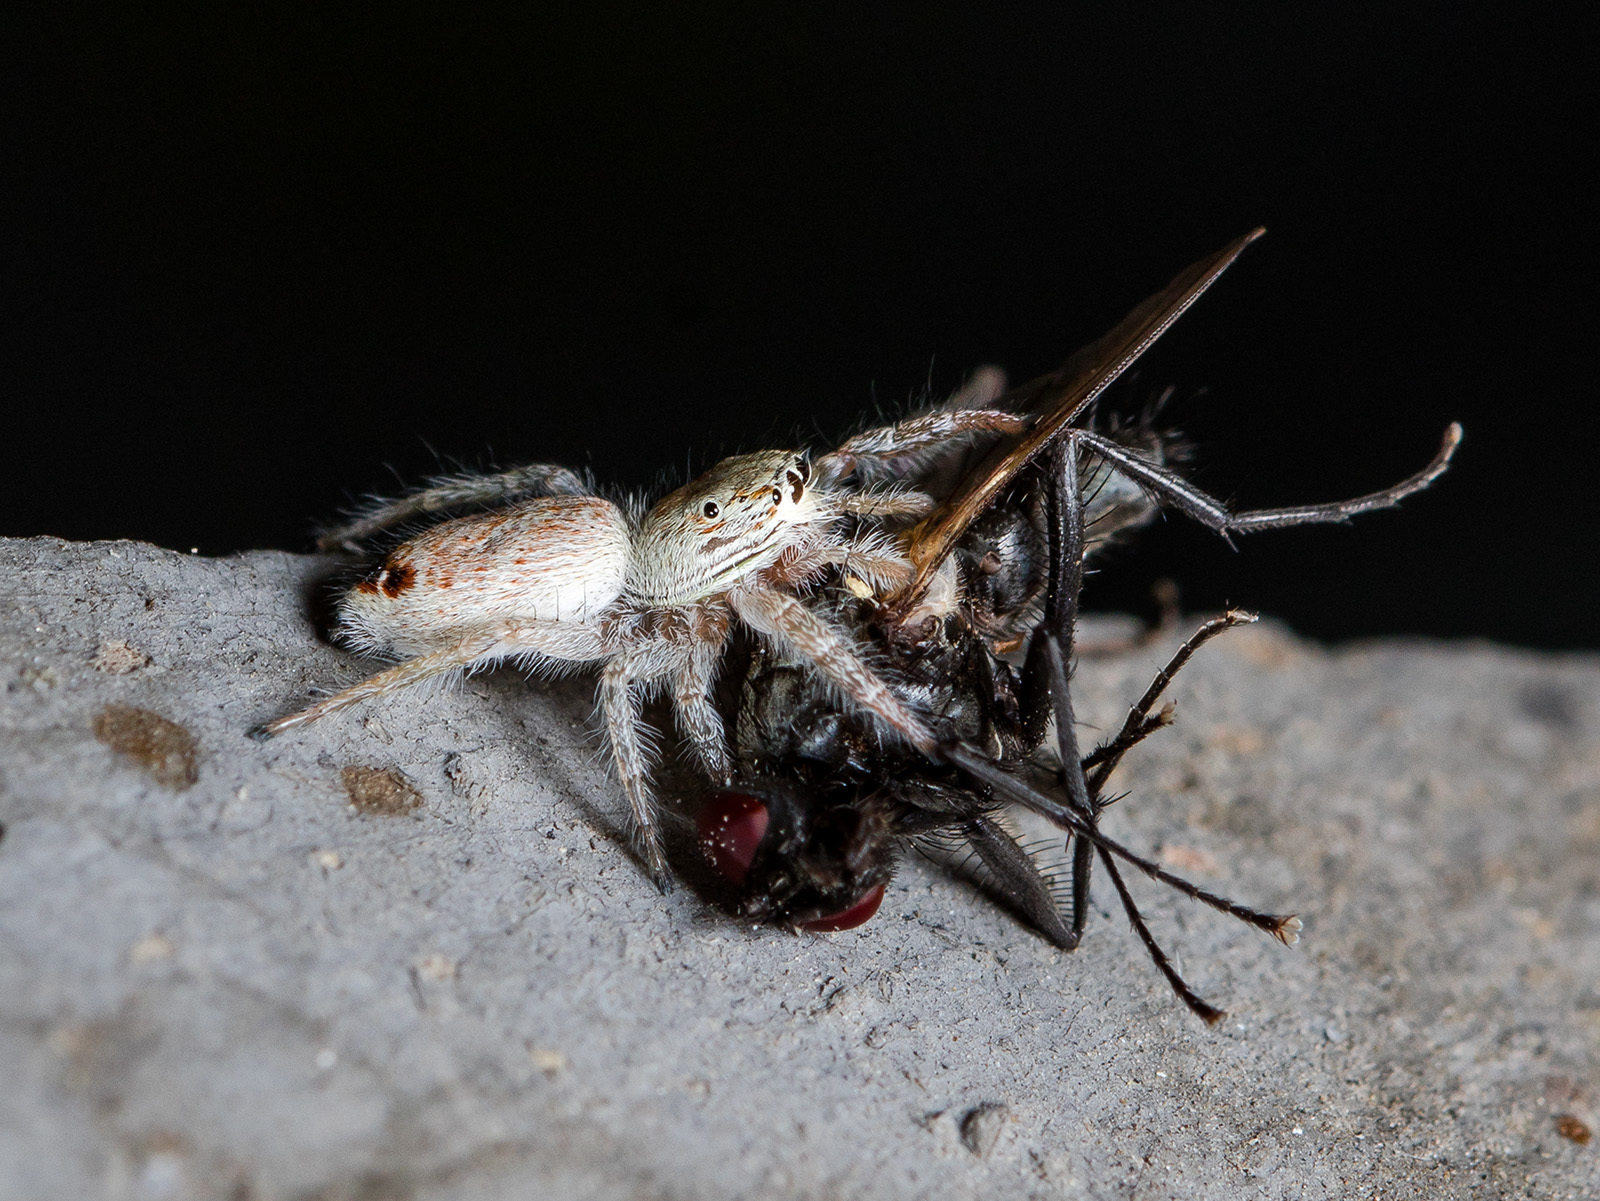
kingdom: Animalia
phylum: Arthropoda
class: Arachnida
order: Araneae
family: Salticidae
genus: Rudakius
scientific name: Rudakius cinctus
